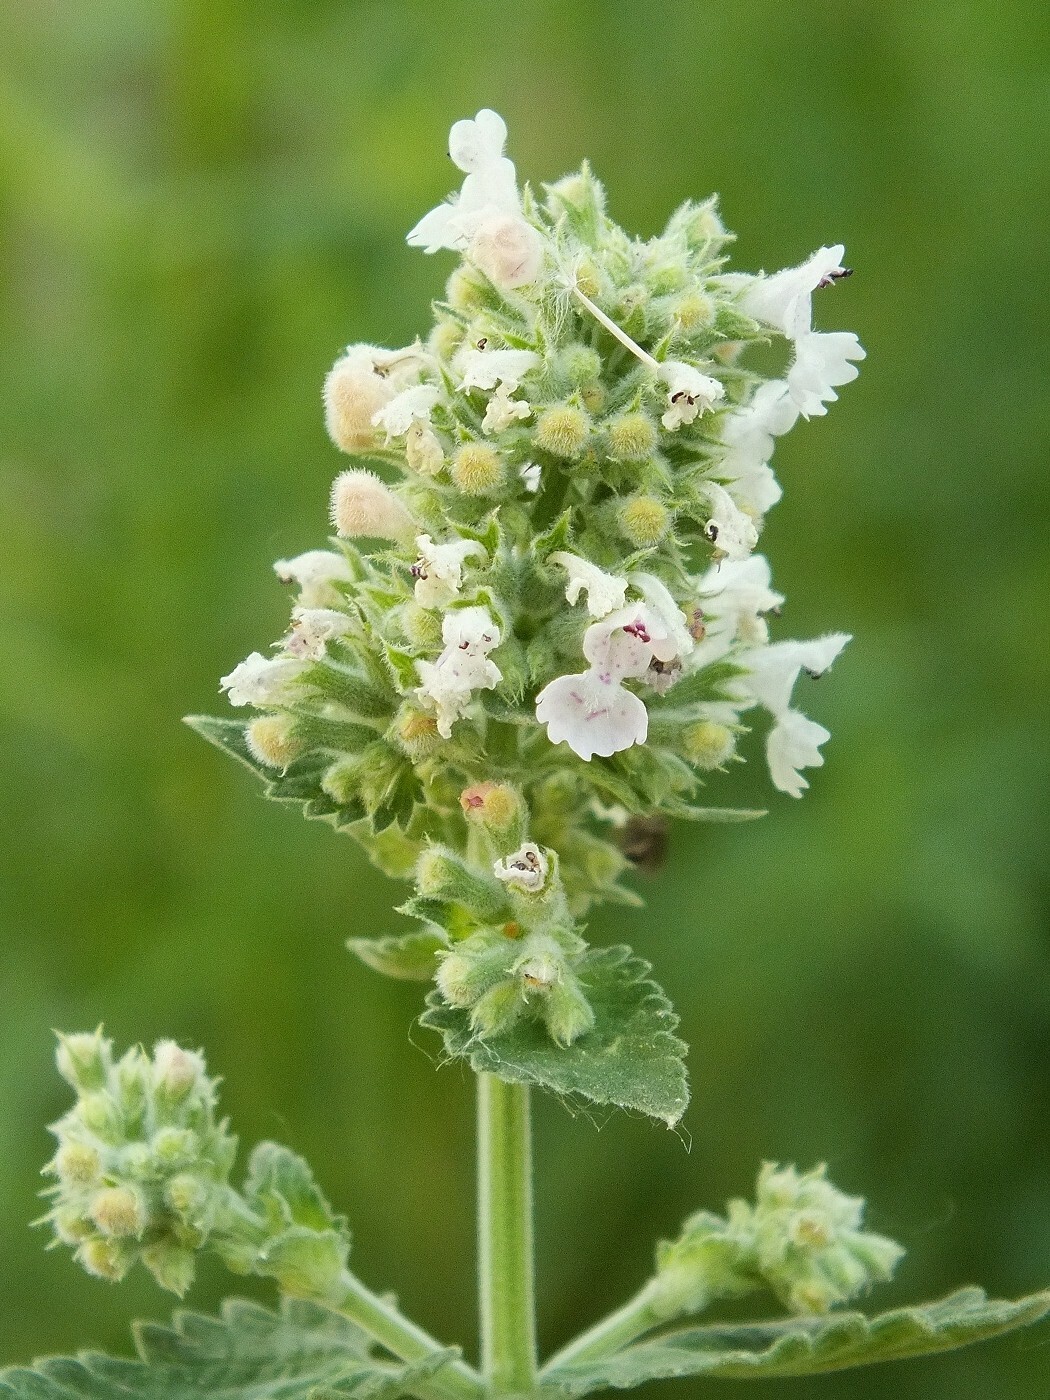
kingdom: Plantae
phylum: Tracheophyta
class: Magnoliopsida
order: Lamiales
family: Lamiaceae
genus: Nepeta
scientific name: Nepeta cataria
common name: Catnip
